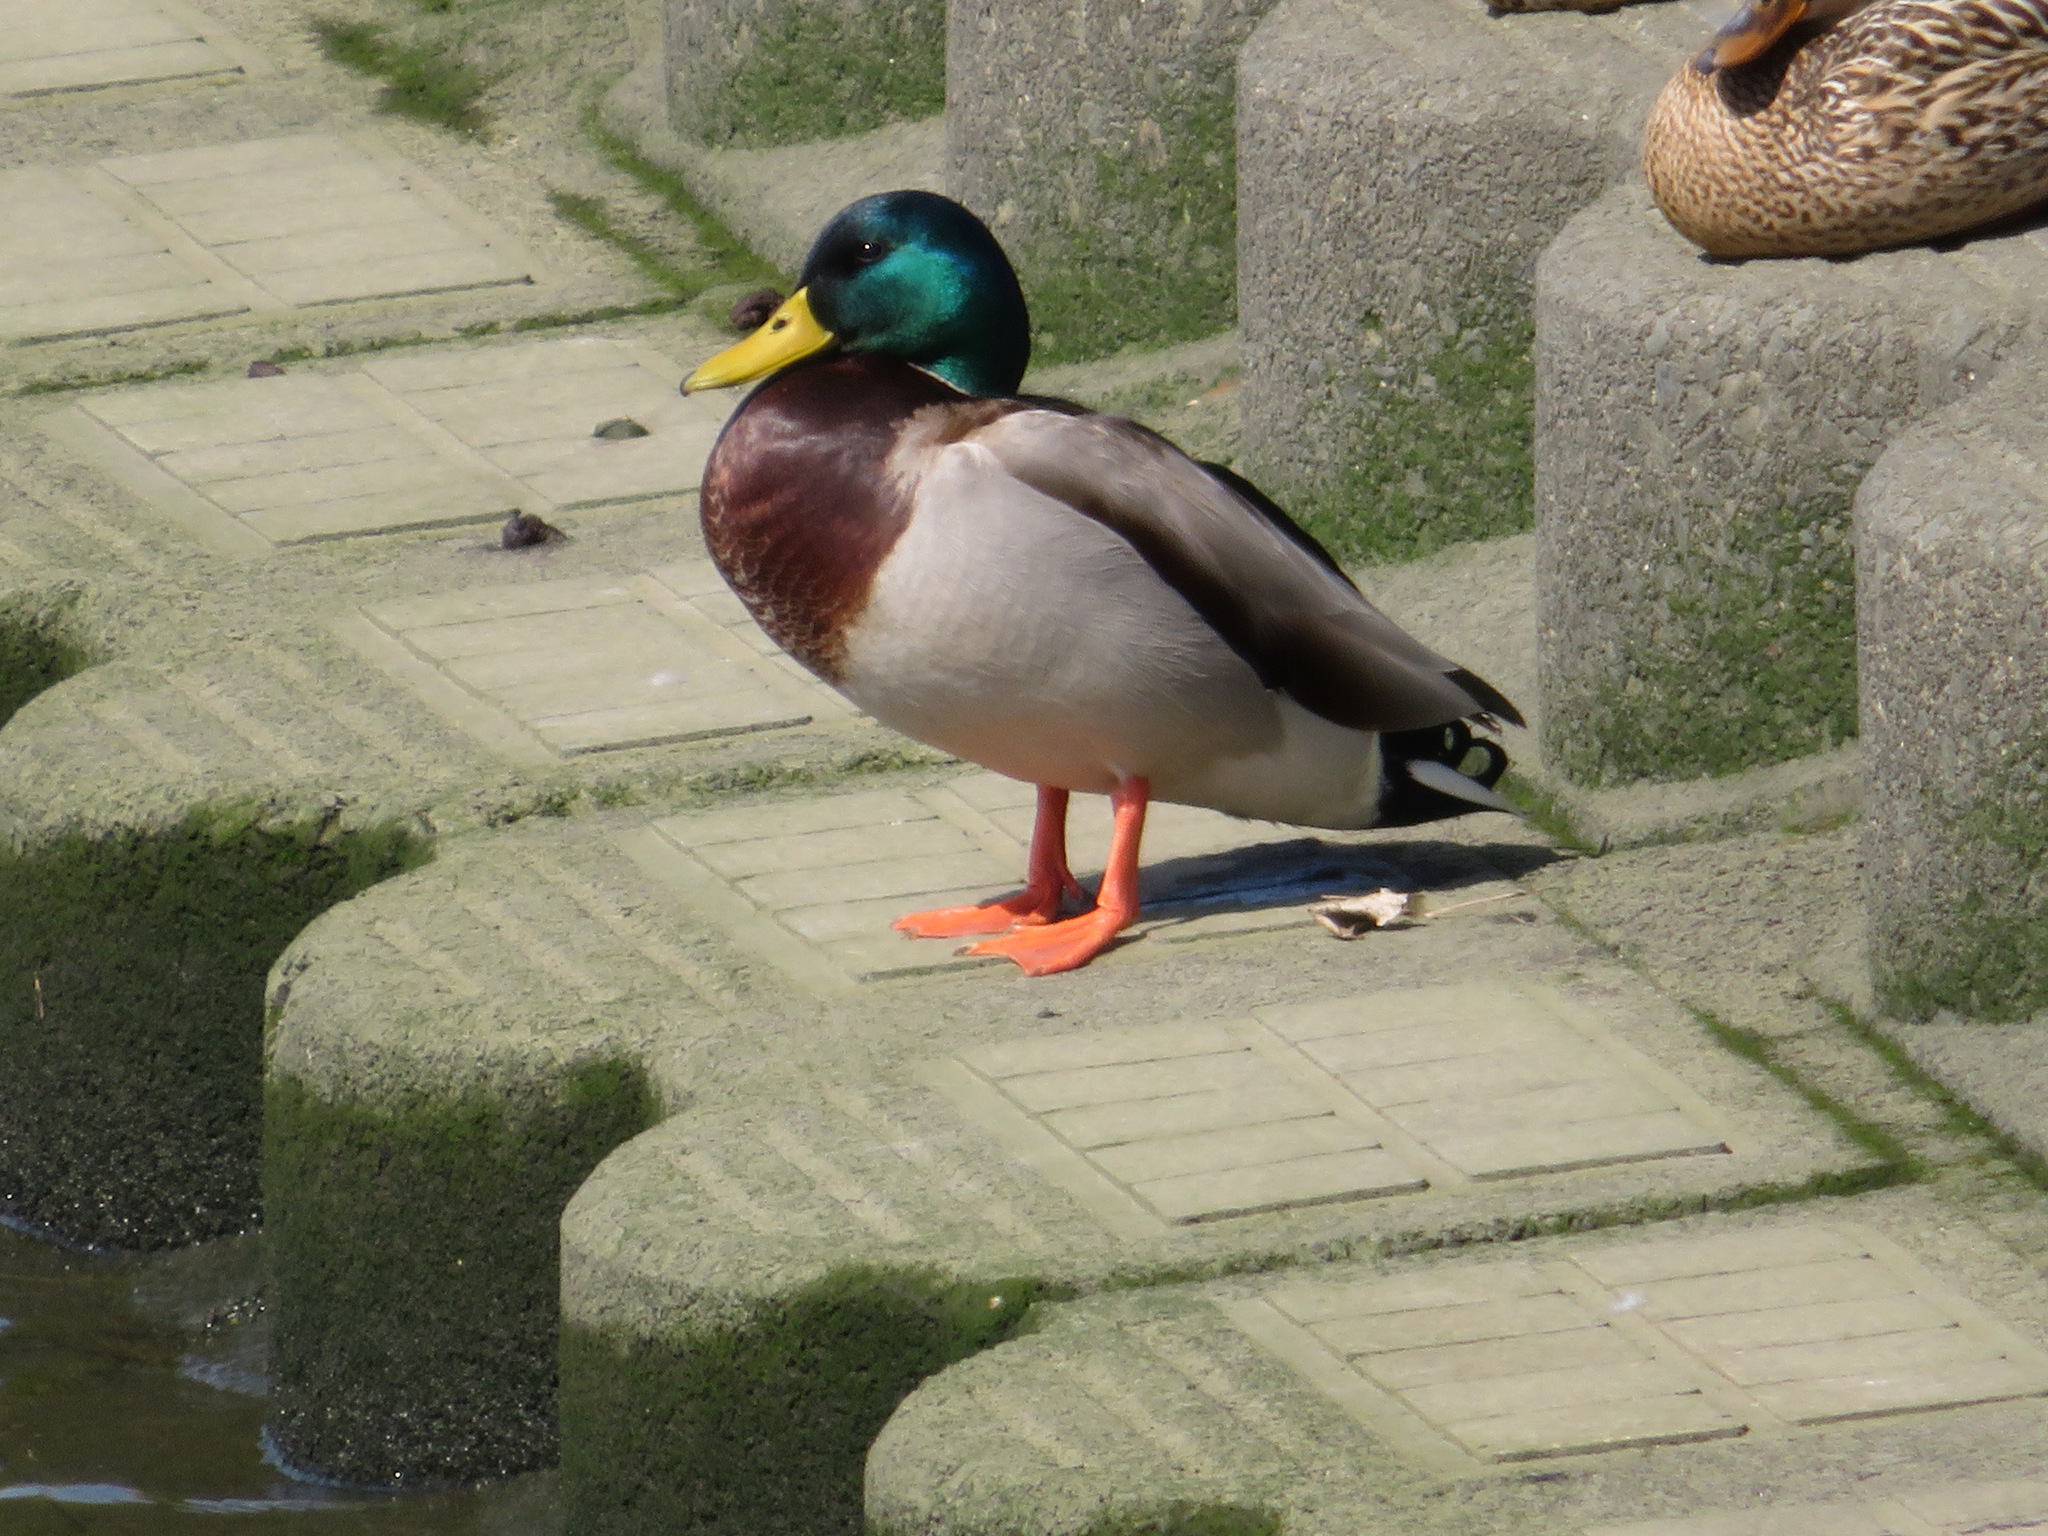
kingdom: Animalia
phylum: Chordata
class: Aves
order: Anseriformes
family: Anatidae
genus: Anas
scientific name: Anas platyrhynchos
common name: Mallard
